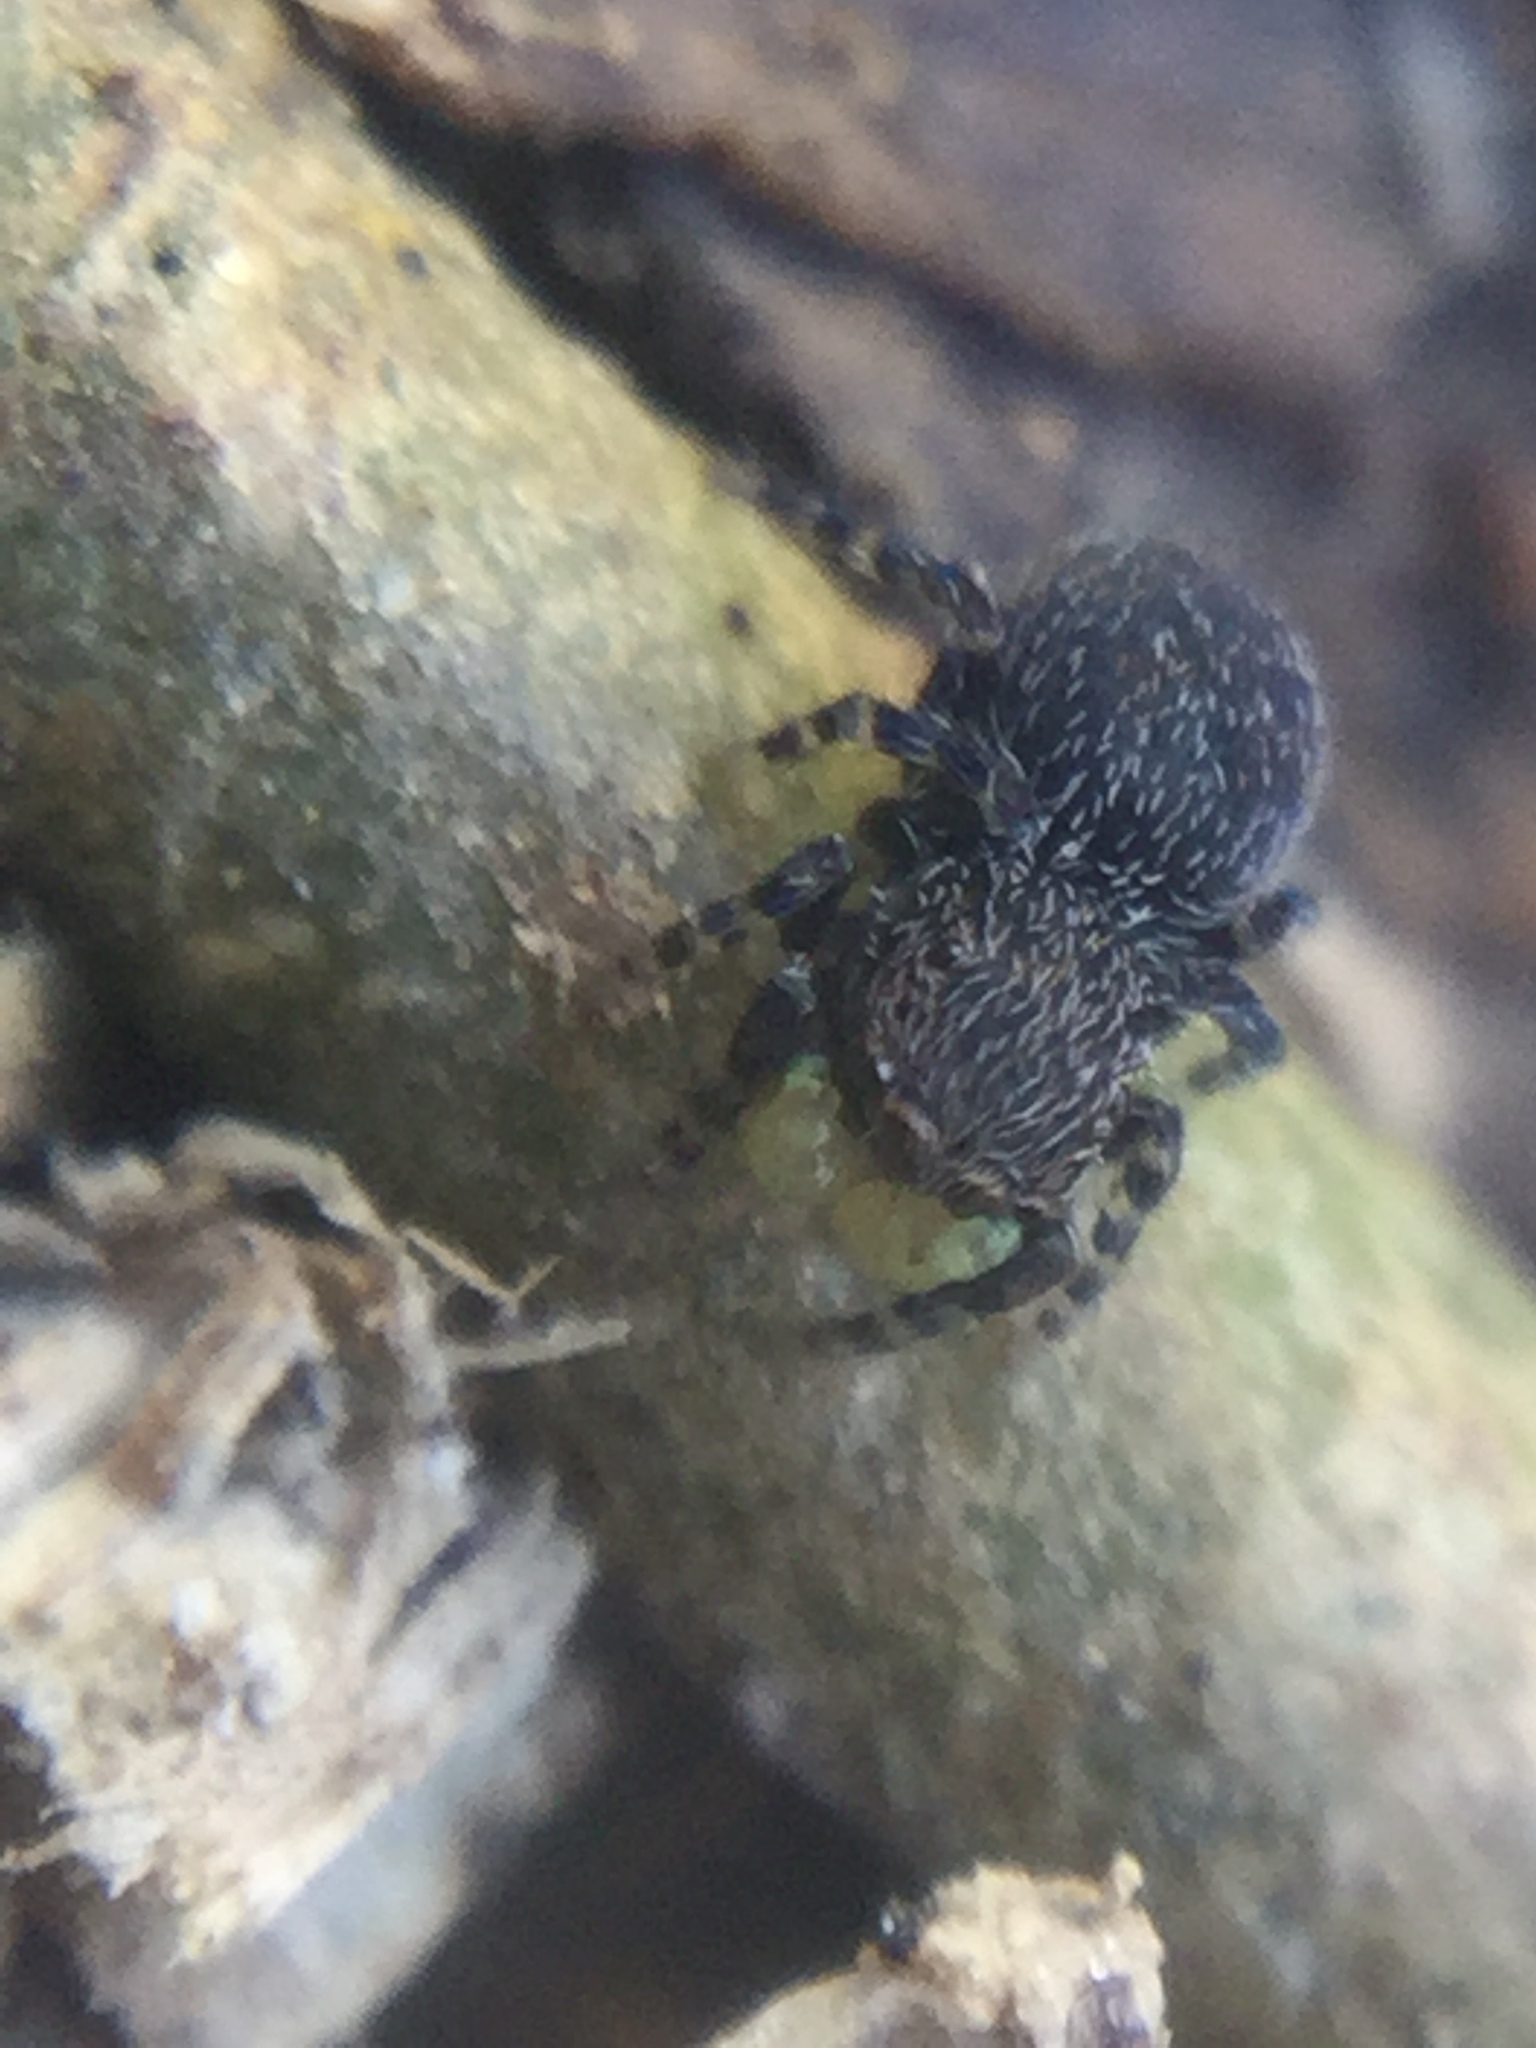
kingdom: Animalia
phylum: Arthropoda
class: Arachnida
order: Araneae
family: Salticidae
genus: Talavera
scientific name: Talavera minuta
